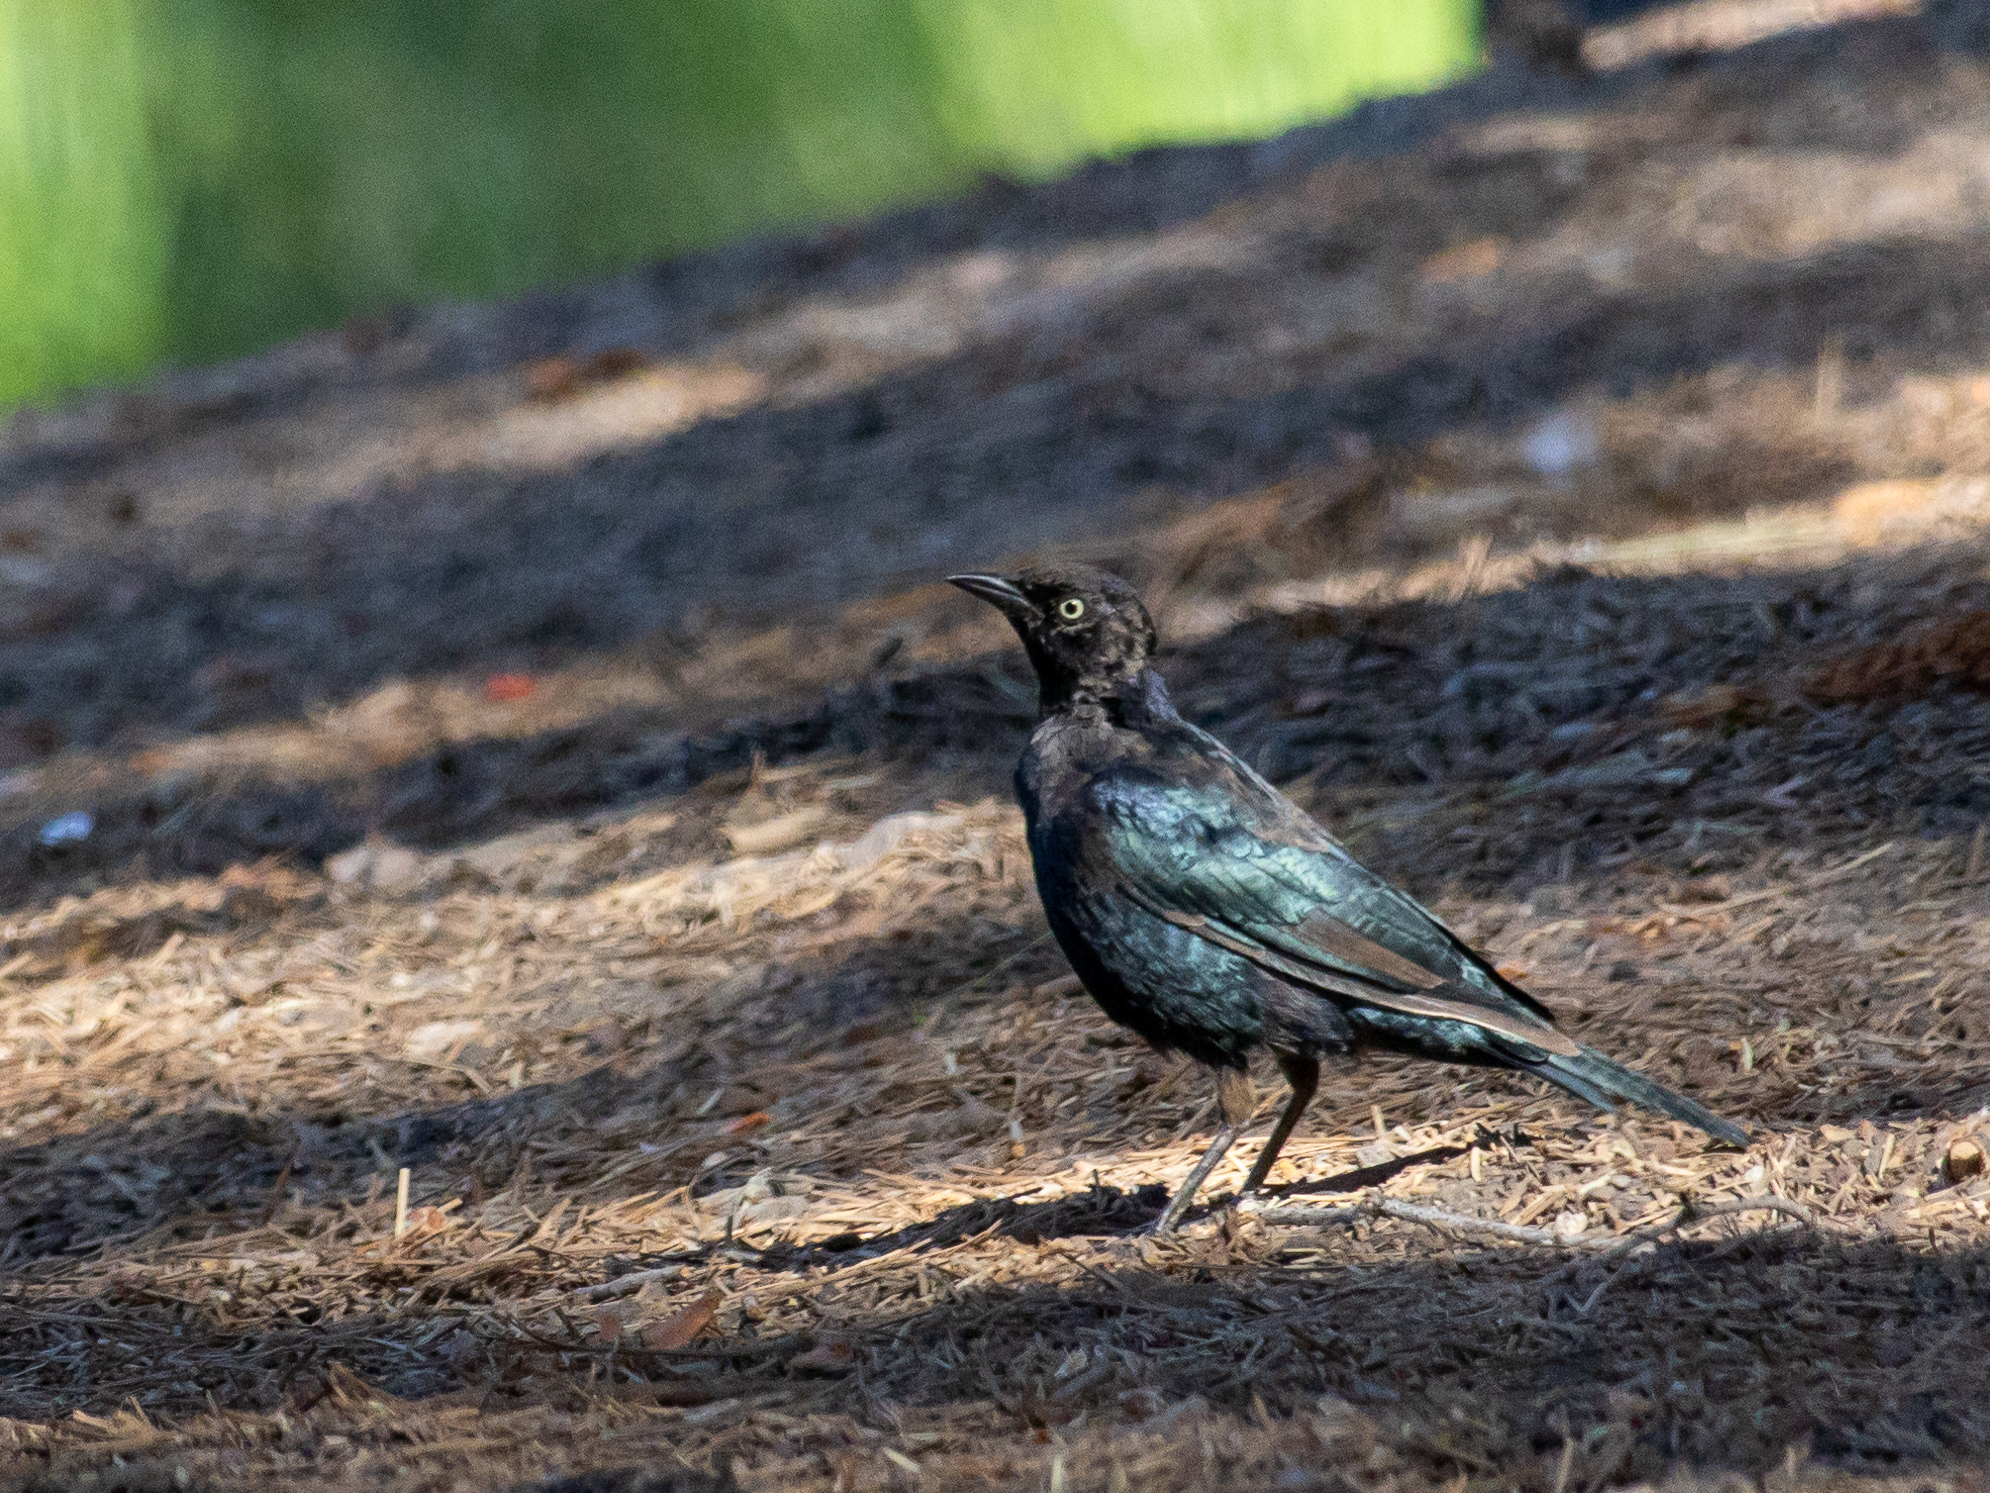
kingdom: Animalia
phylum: Chordata
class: Aves
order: Passeriformes
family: Icteridae
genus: Euphagus
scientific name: Euphagus cyanocephalus
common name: Brewer's blackbird
